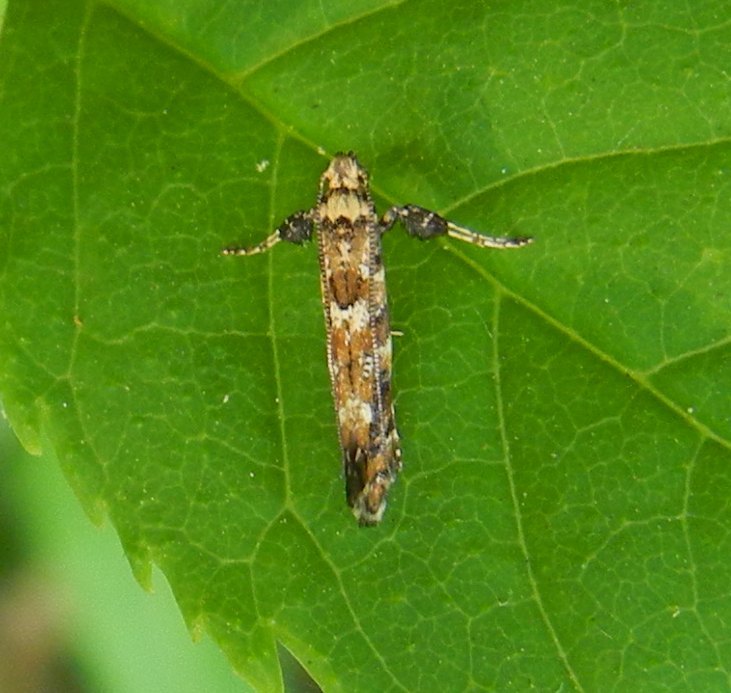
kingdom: Animalia
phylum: Arthropoda
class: Insecta
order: Lepidoptera
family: Gracillariidae
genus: Gracillaria
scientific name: Gracillaria syringella
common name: Common slender
